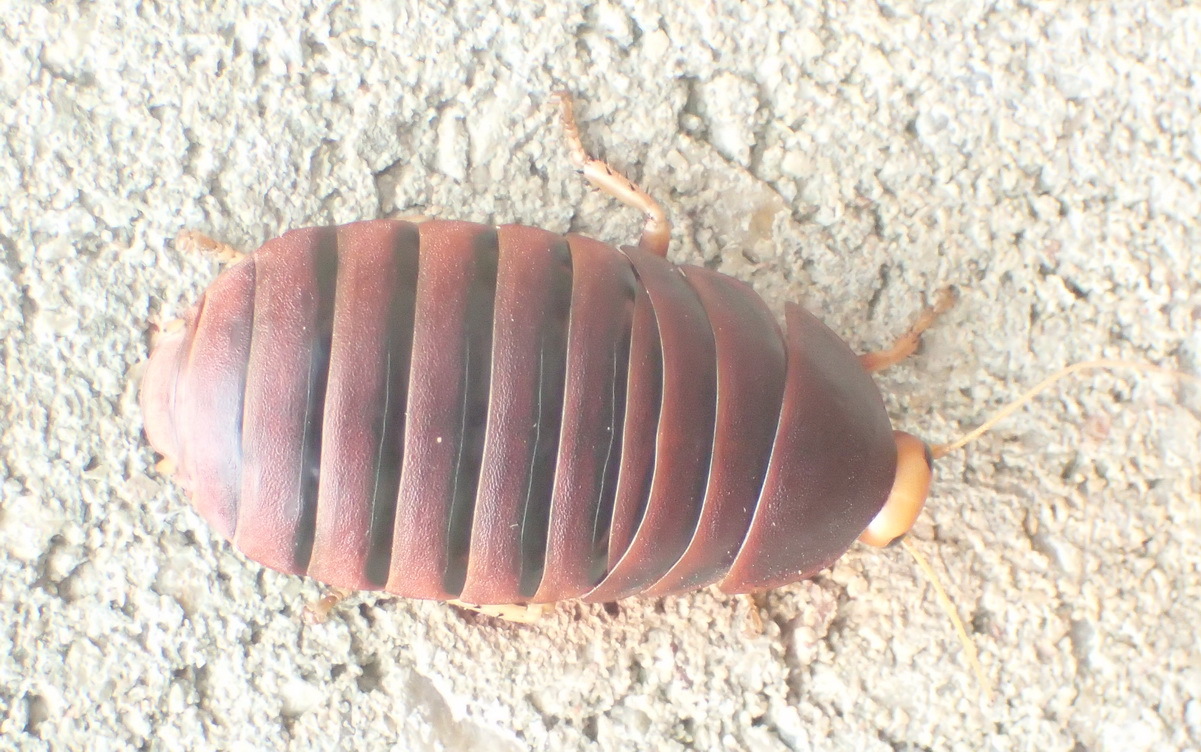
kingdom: Animalia
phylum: Arthropoda
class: Insecta
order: Blattodea
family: Blaberidae
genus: Aptera
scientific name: Aptera fusca
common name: Cape mountain cockroach
